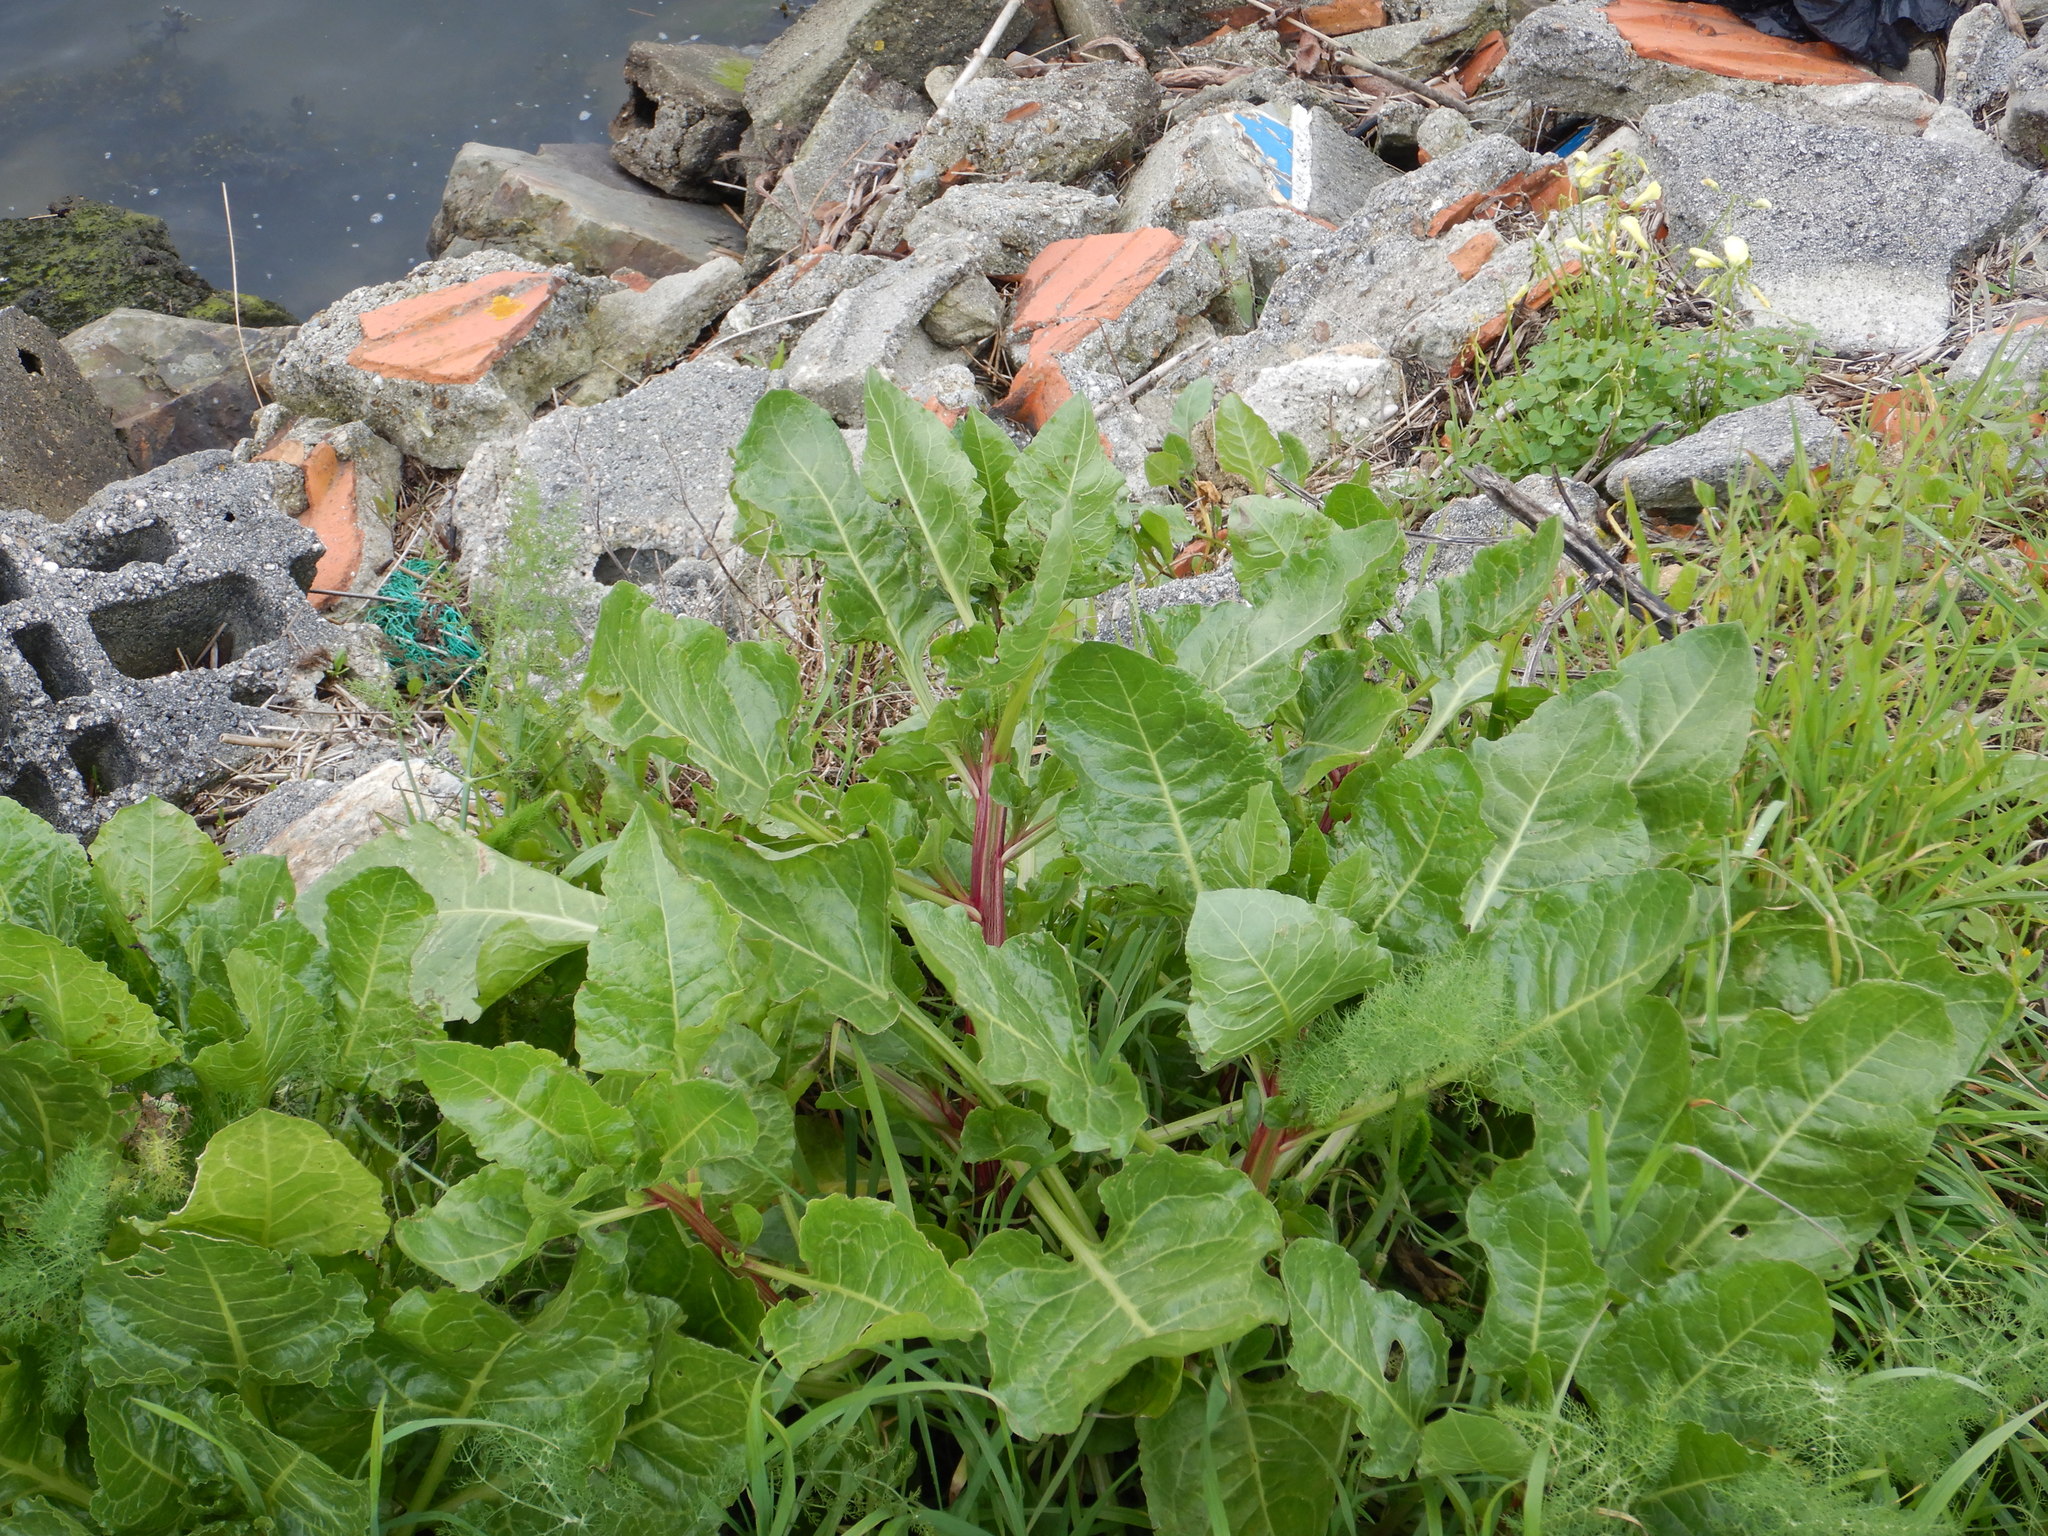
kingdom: Plantae
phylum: Tracheophyta
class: Magnoliopsida
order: Caryophyllales
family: Amaranthaceae
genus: Beta
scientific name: Beta vulgaris
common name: Beet
